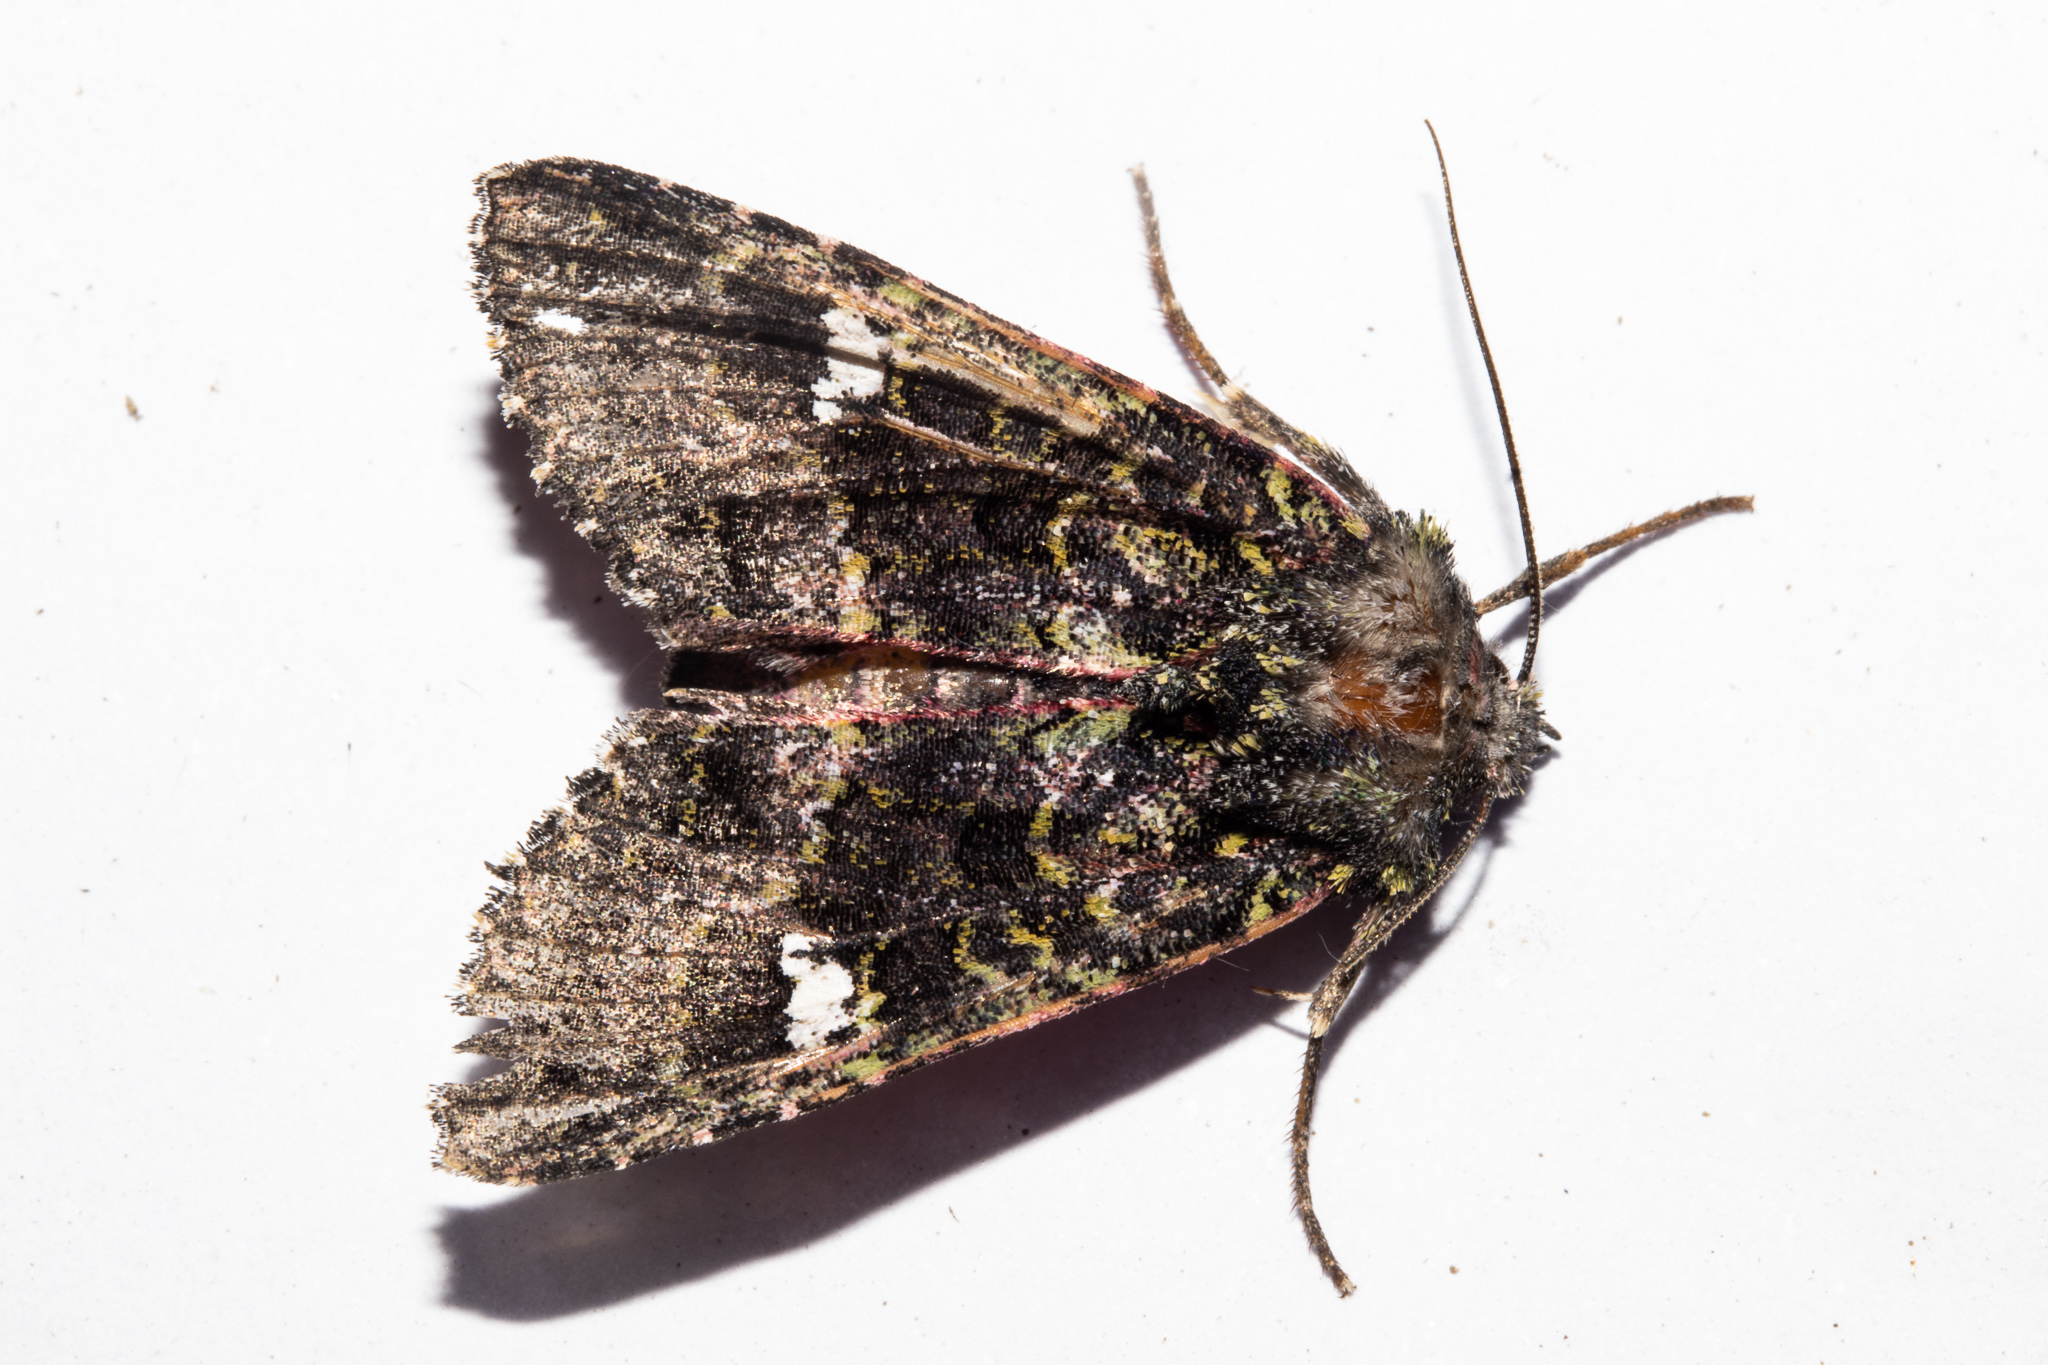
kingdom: Animalia
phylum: Arthropoda
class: Insecta
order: Lepidoptera
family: Noctuidae
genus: Meterana
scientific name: Meterana meyricci
